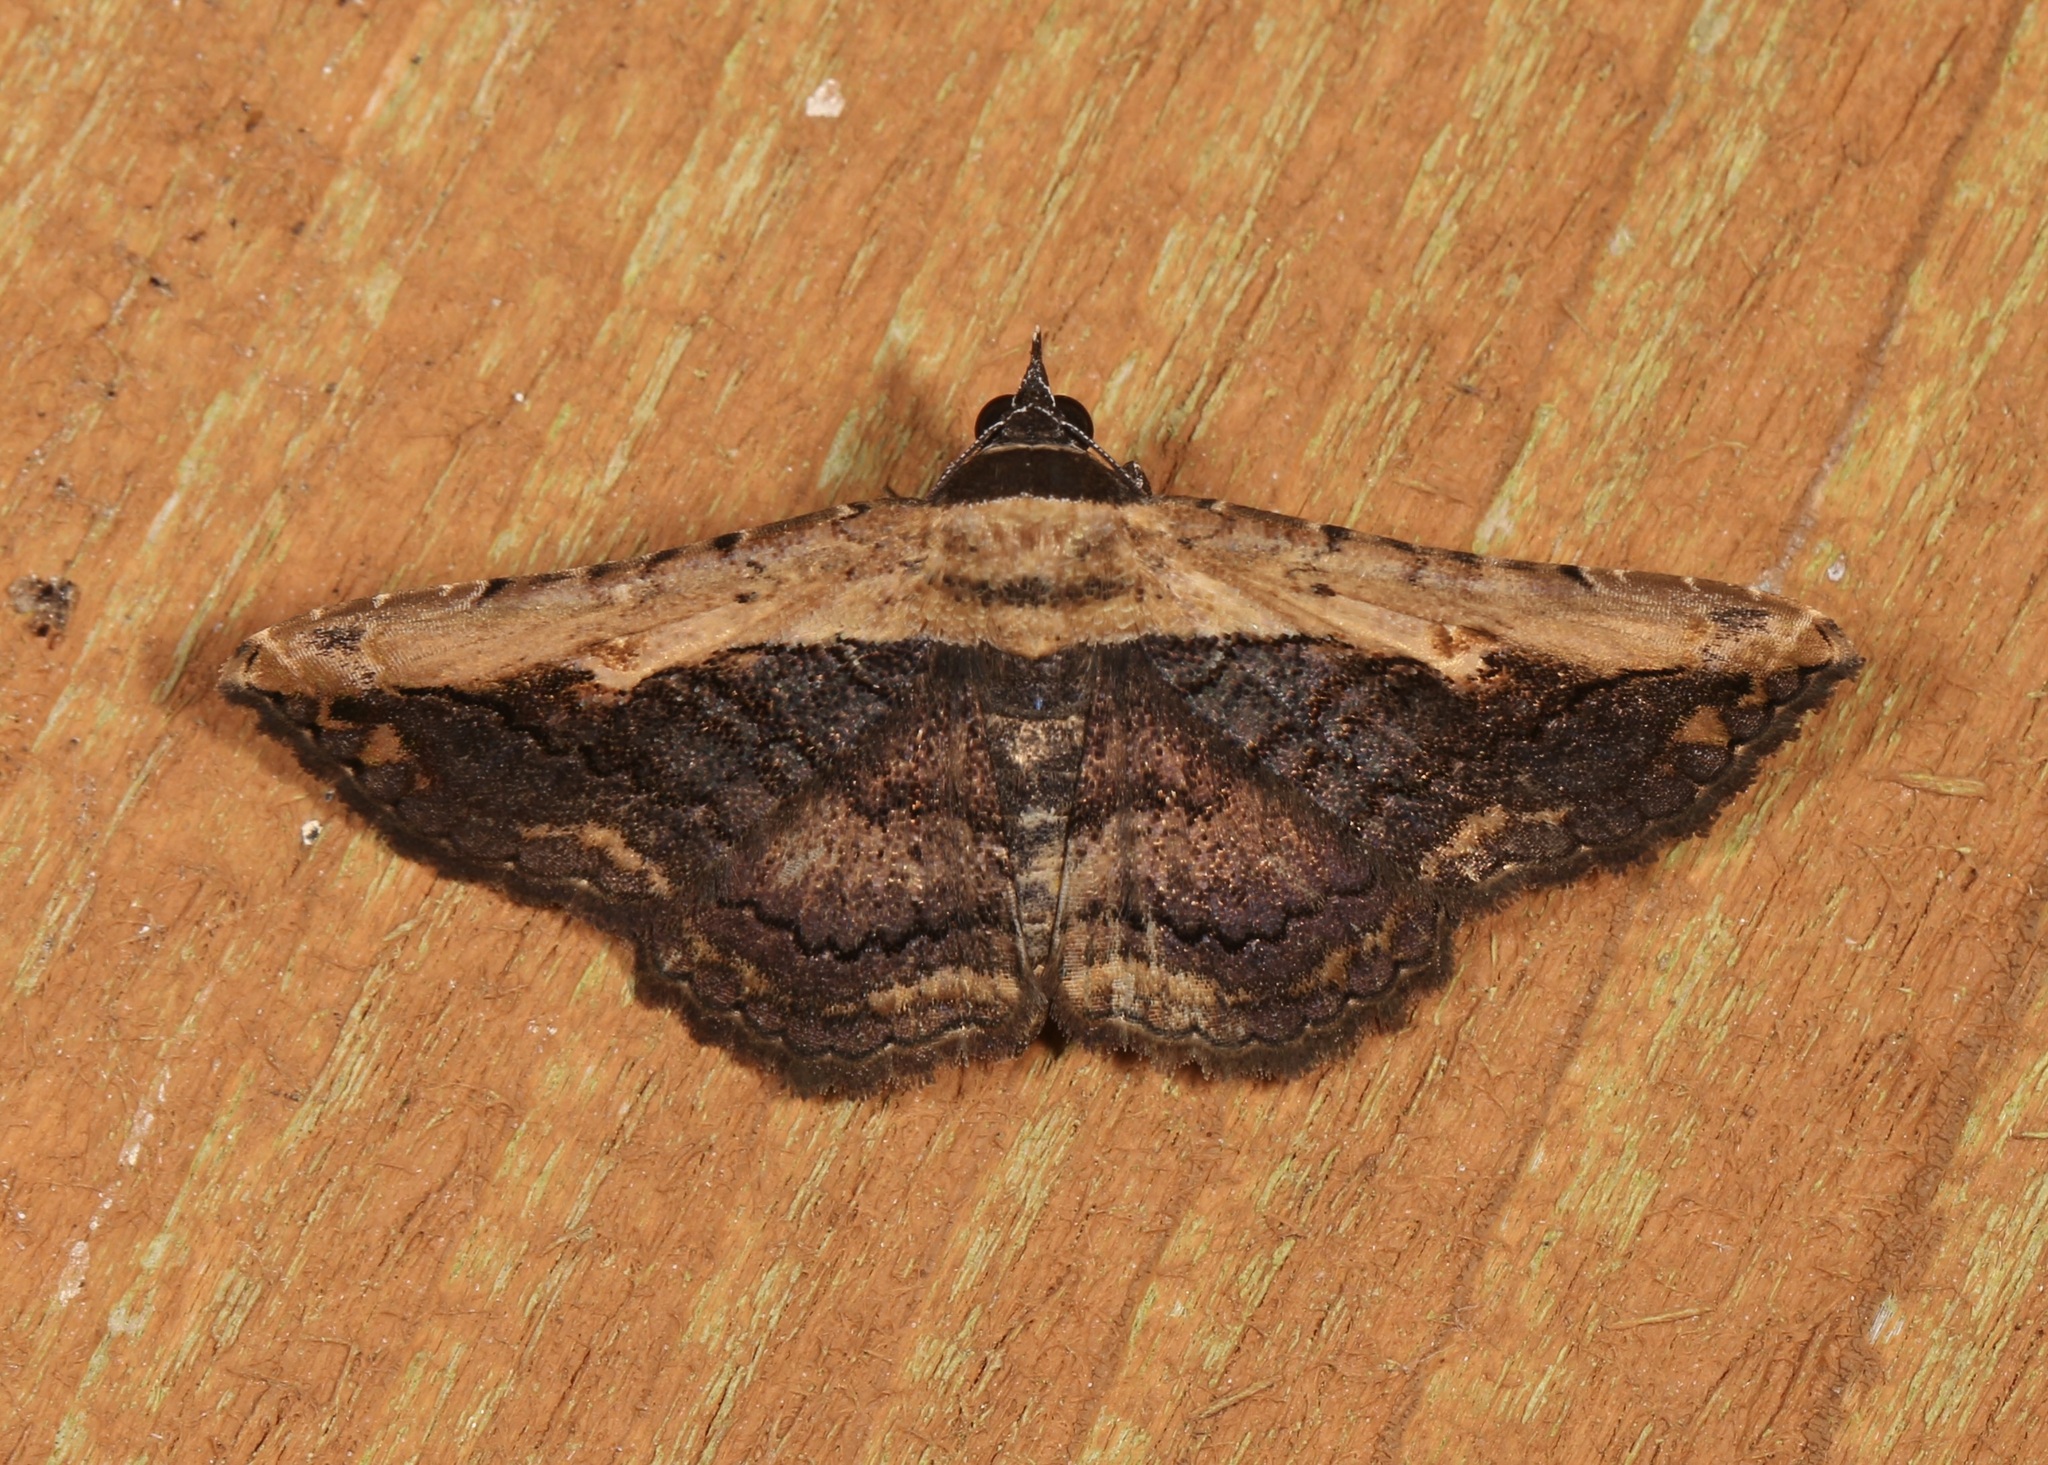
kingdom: Animalia
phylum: Arthropoda
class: Insecta
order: Lepidoptera
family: Erebidae
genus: Selenisa
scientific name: Selenisa sueroides
